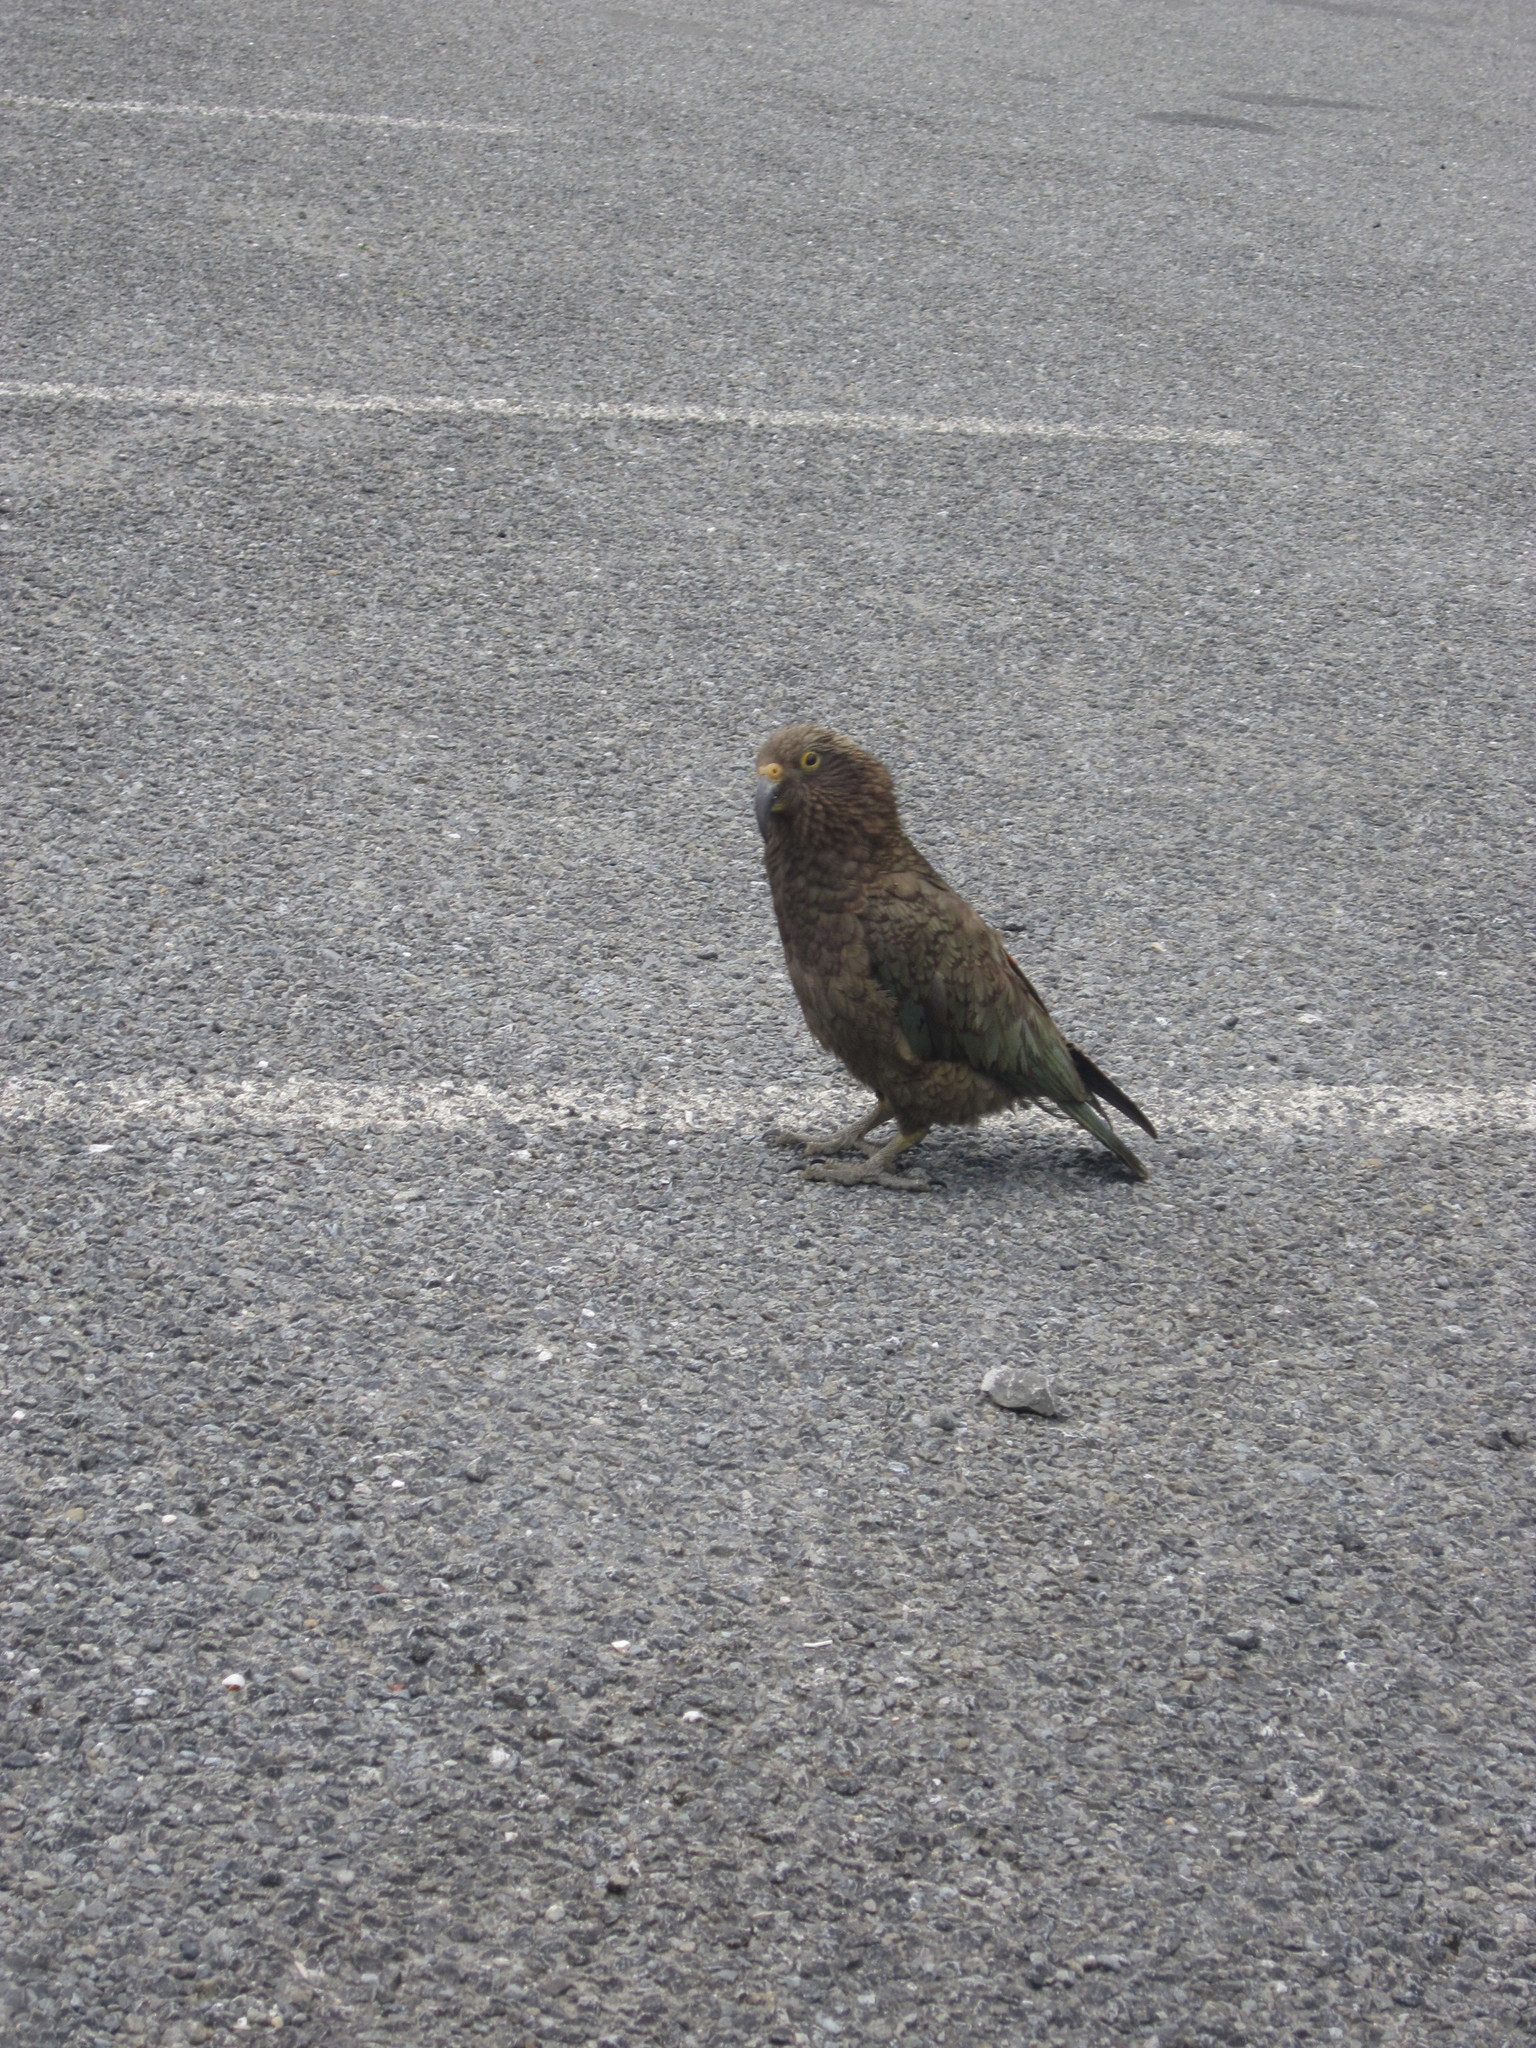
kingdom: Animalia
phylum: Chordata
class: Aves
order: Psittaciformes
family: Psittacidae
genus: Nestor
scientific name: Nestor notabilis
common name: Kea
